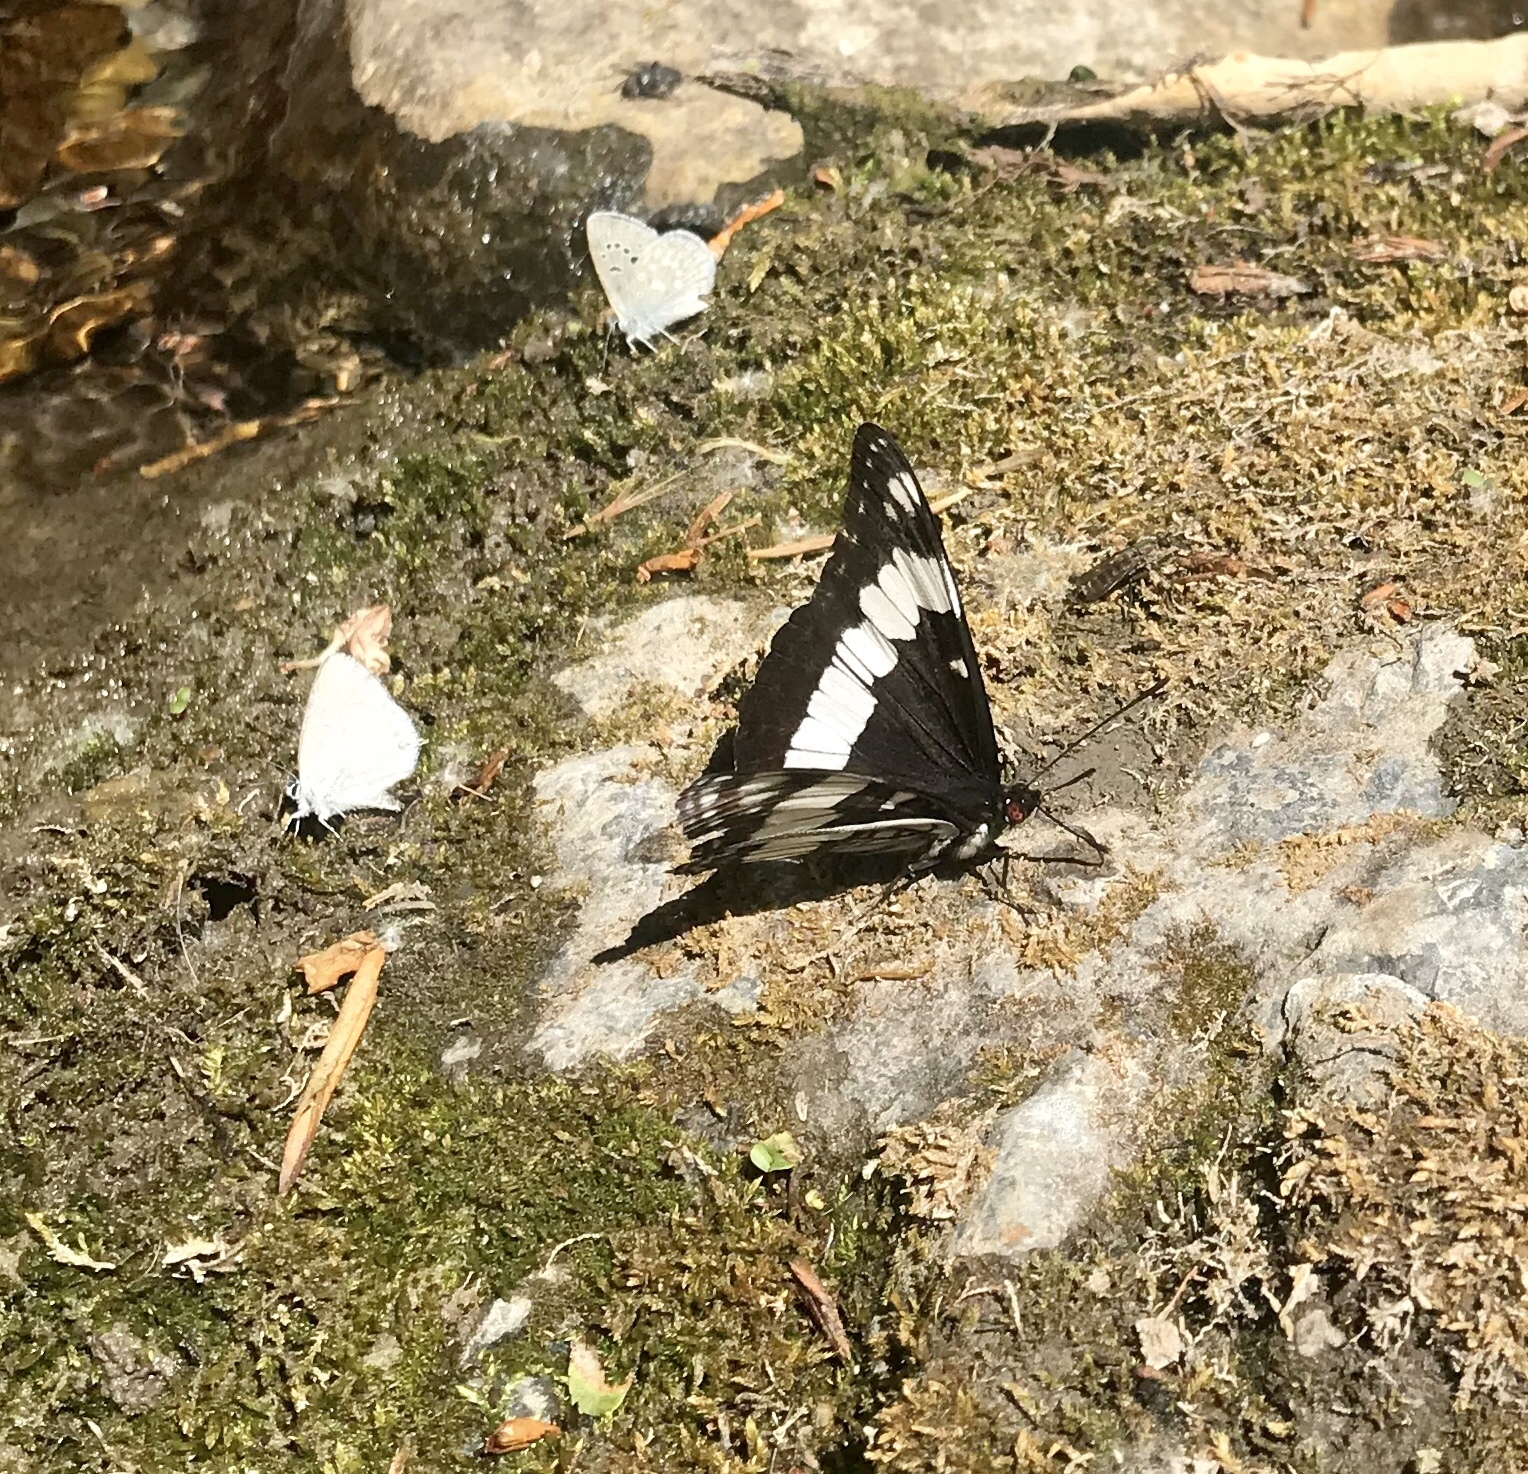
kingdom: Animalia
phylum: Arthropoda
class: Insecta
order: Lepidoptera
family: Nymphalidae
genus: Limenitis
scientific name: Limenitis weidemeyerii
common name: Weidemeyer's admiral
